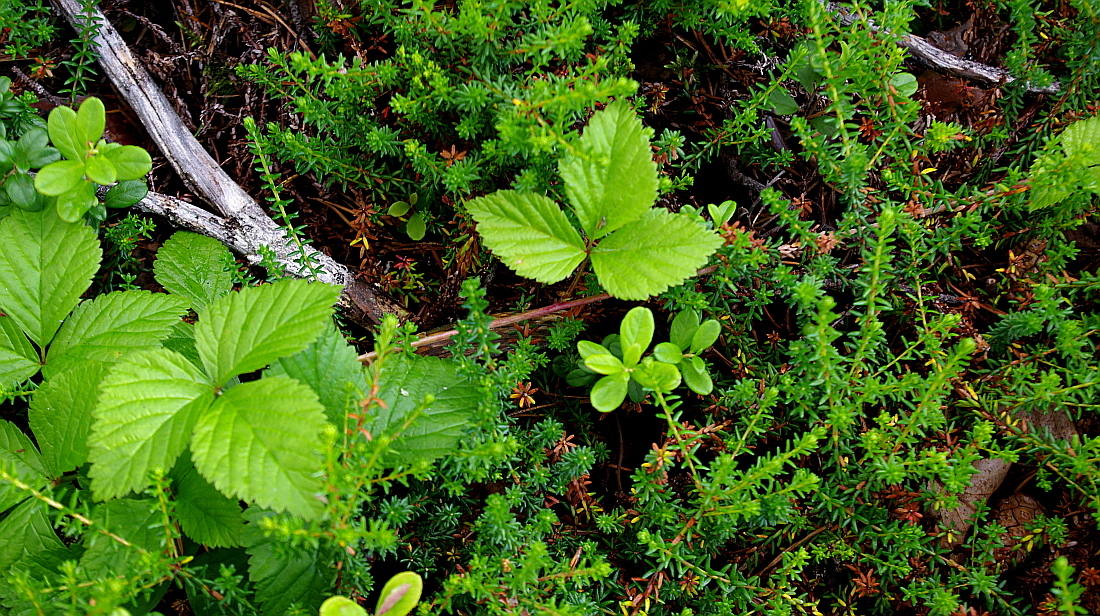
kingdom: Plantae
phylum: Tracheophyta
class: Magnoliopsida
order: Rosales
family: Rosaceae
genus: Rubus
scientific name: Rubus saxatilis
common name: Stone bramble
